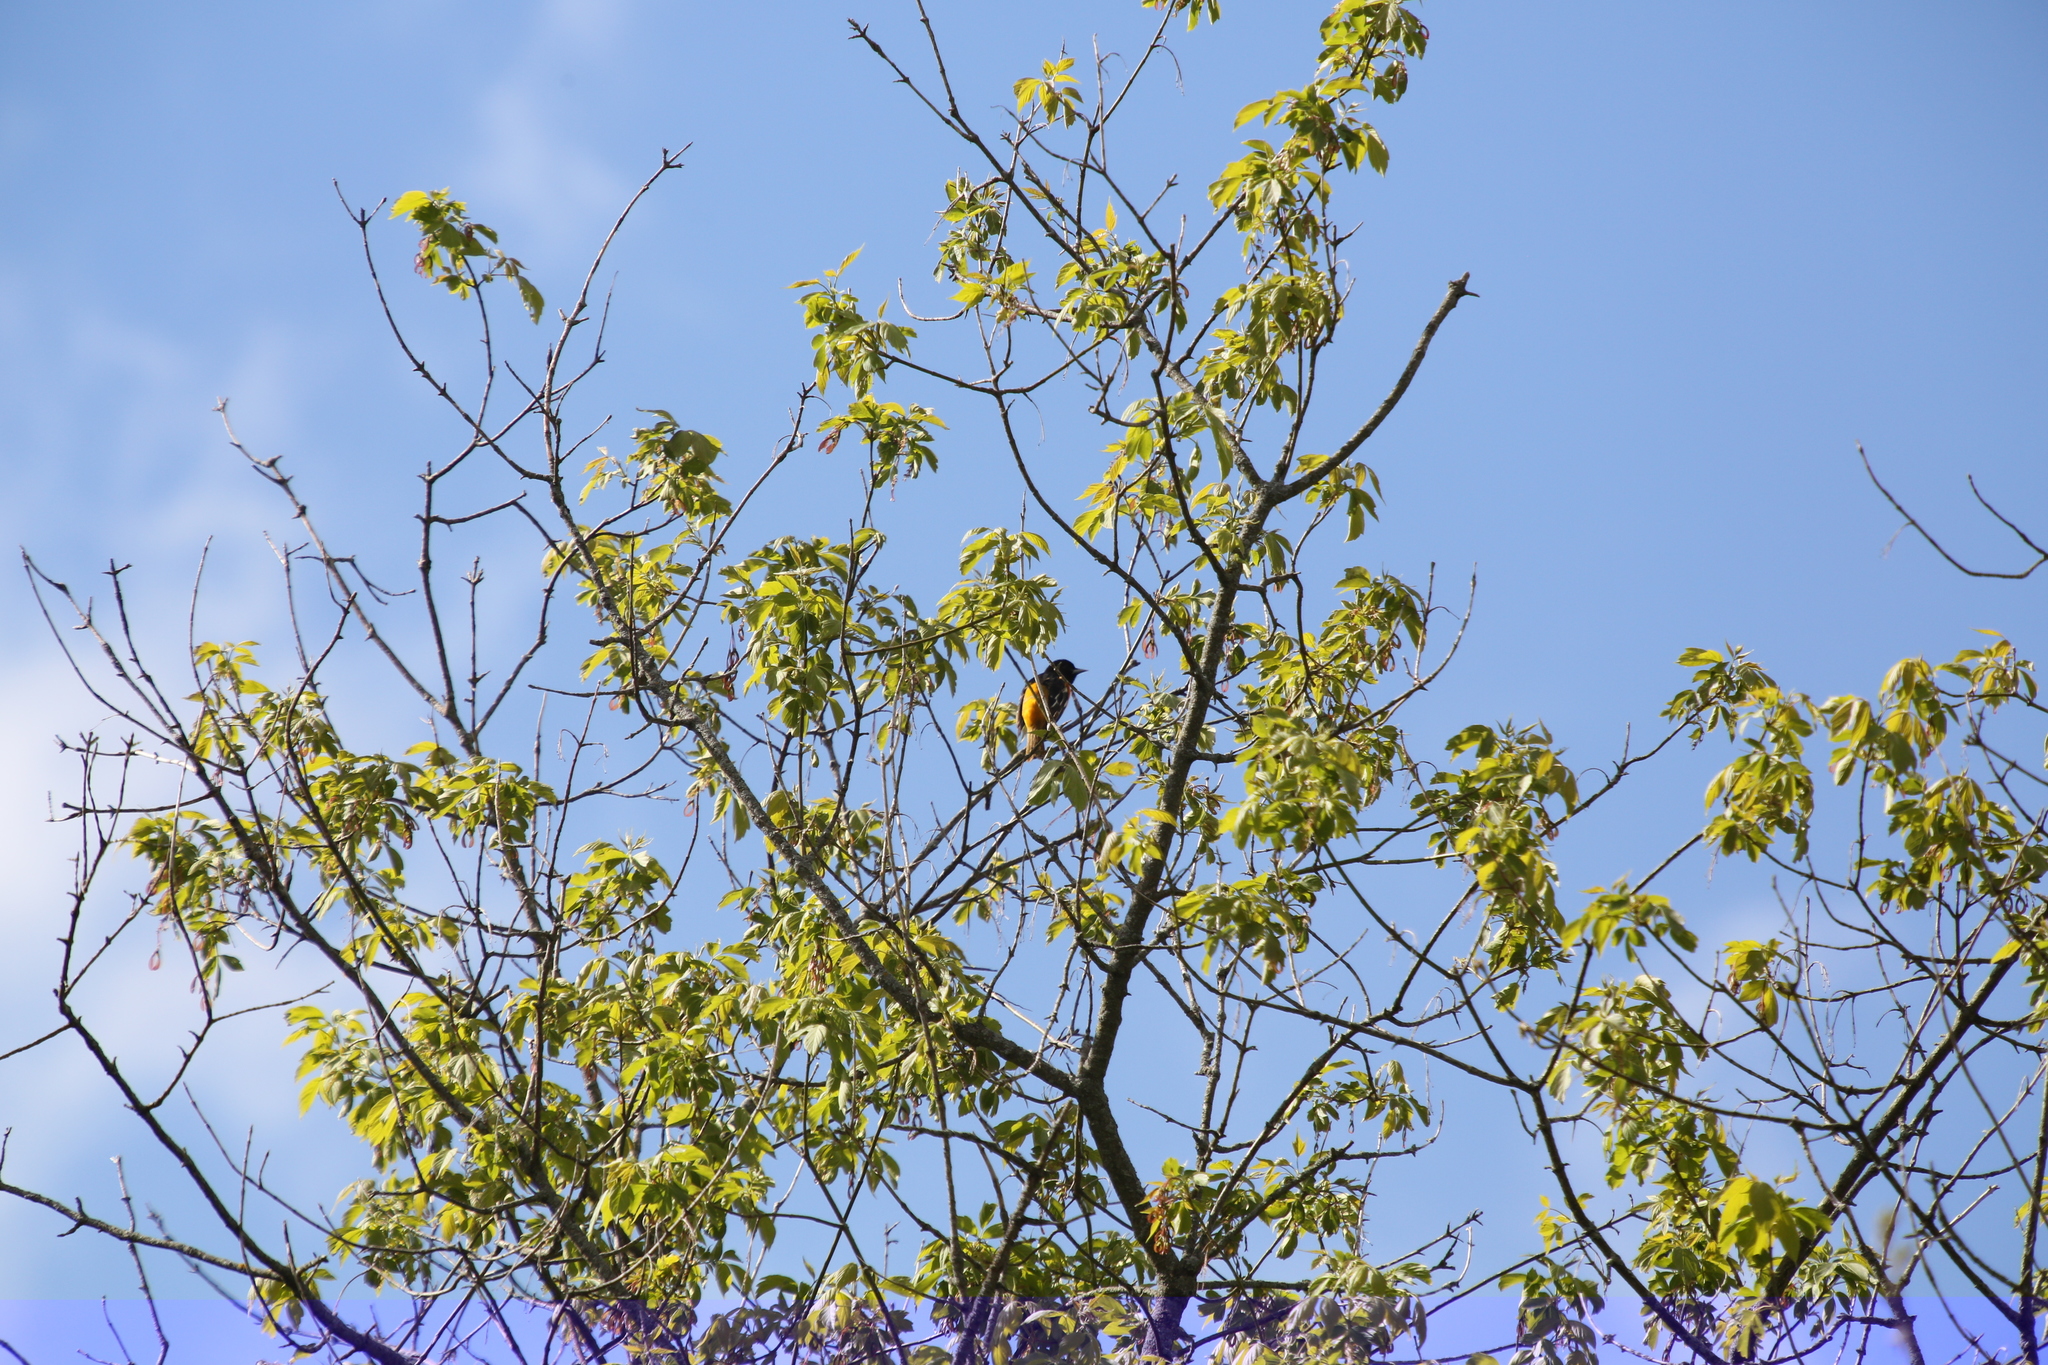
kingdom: Animalia
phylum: Chordata
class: Aves
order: Passeriformes
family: Icteridae
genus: Icterus
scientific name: Icterus galbula
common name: Baltimore oriole
